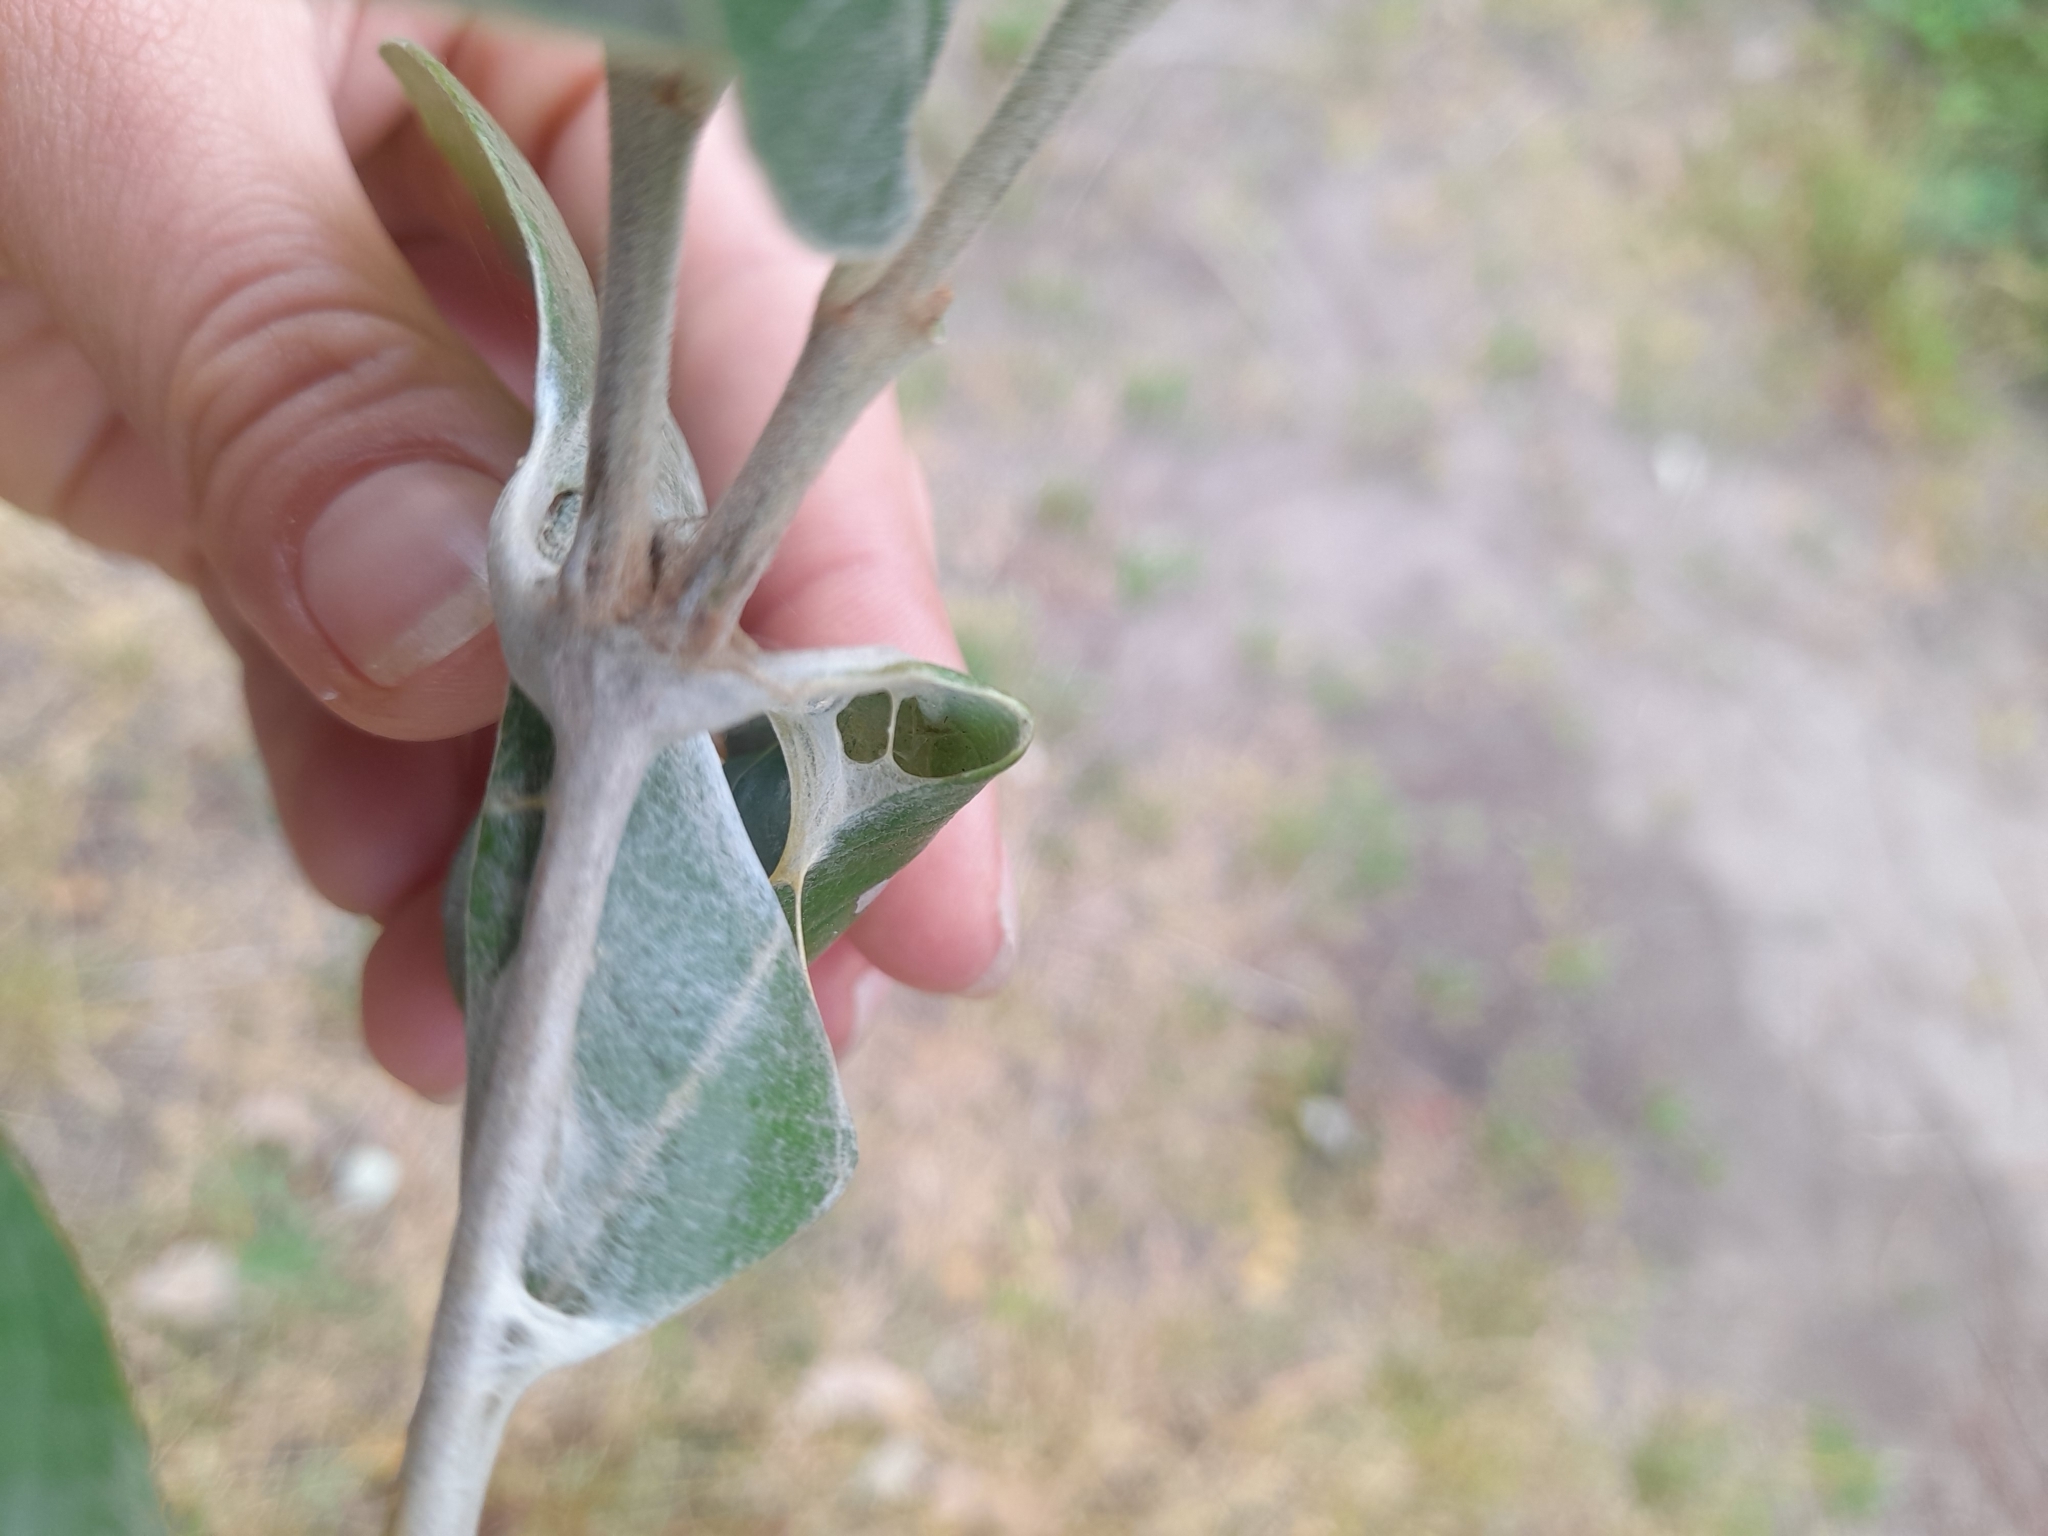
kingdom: Animalia
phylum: Arthropoda
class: Insecta
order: Lepidoptera
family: Hesperiidae
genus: Phocides
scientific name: Phocides polybius
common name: Guava skipper
